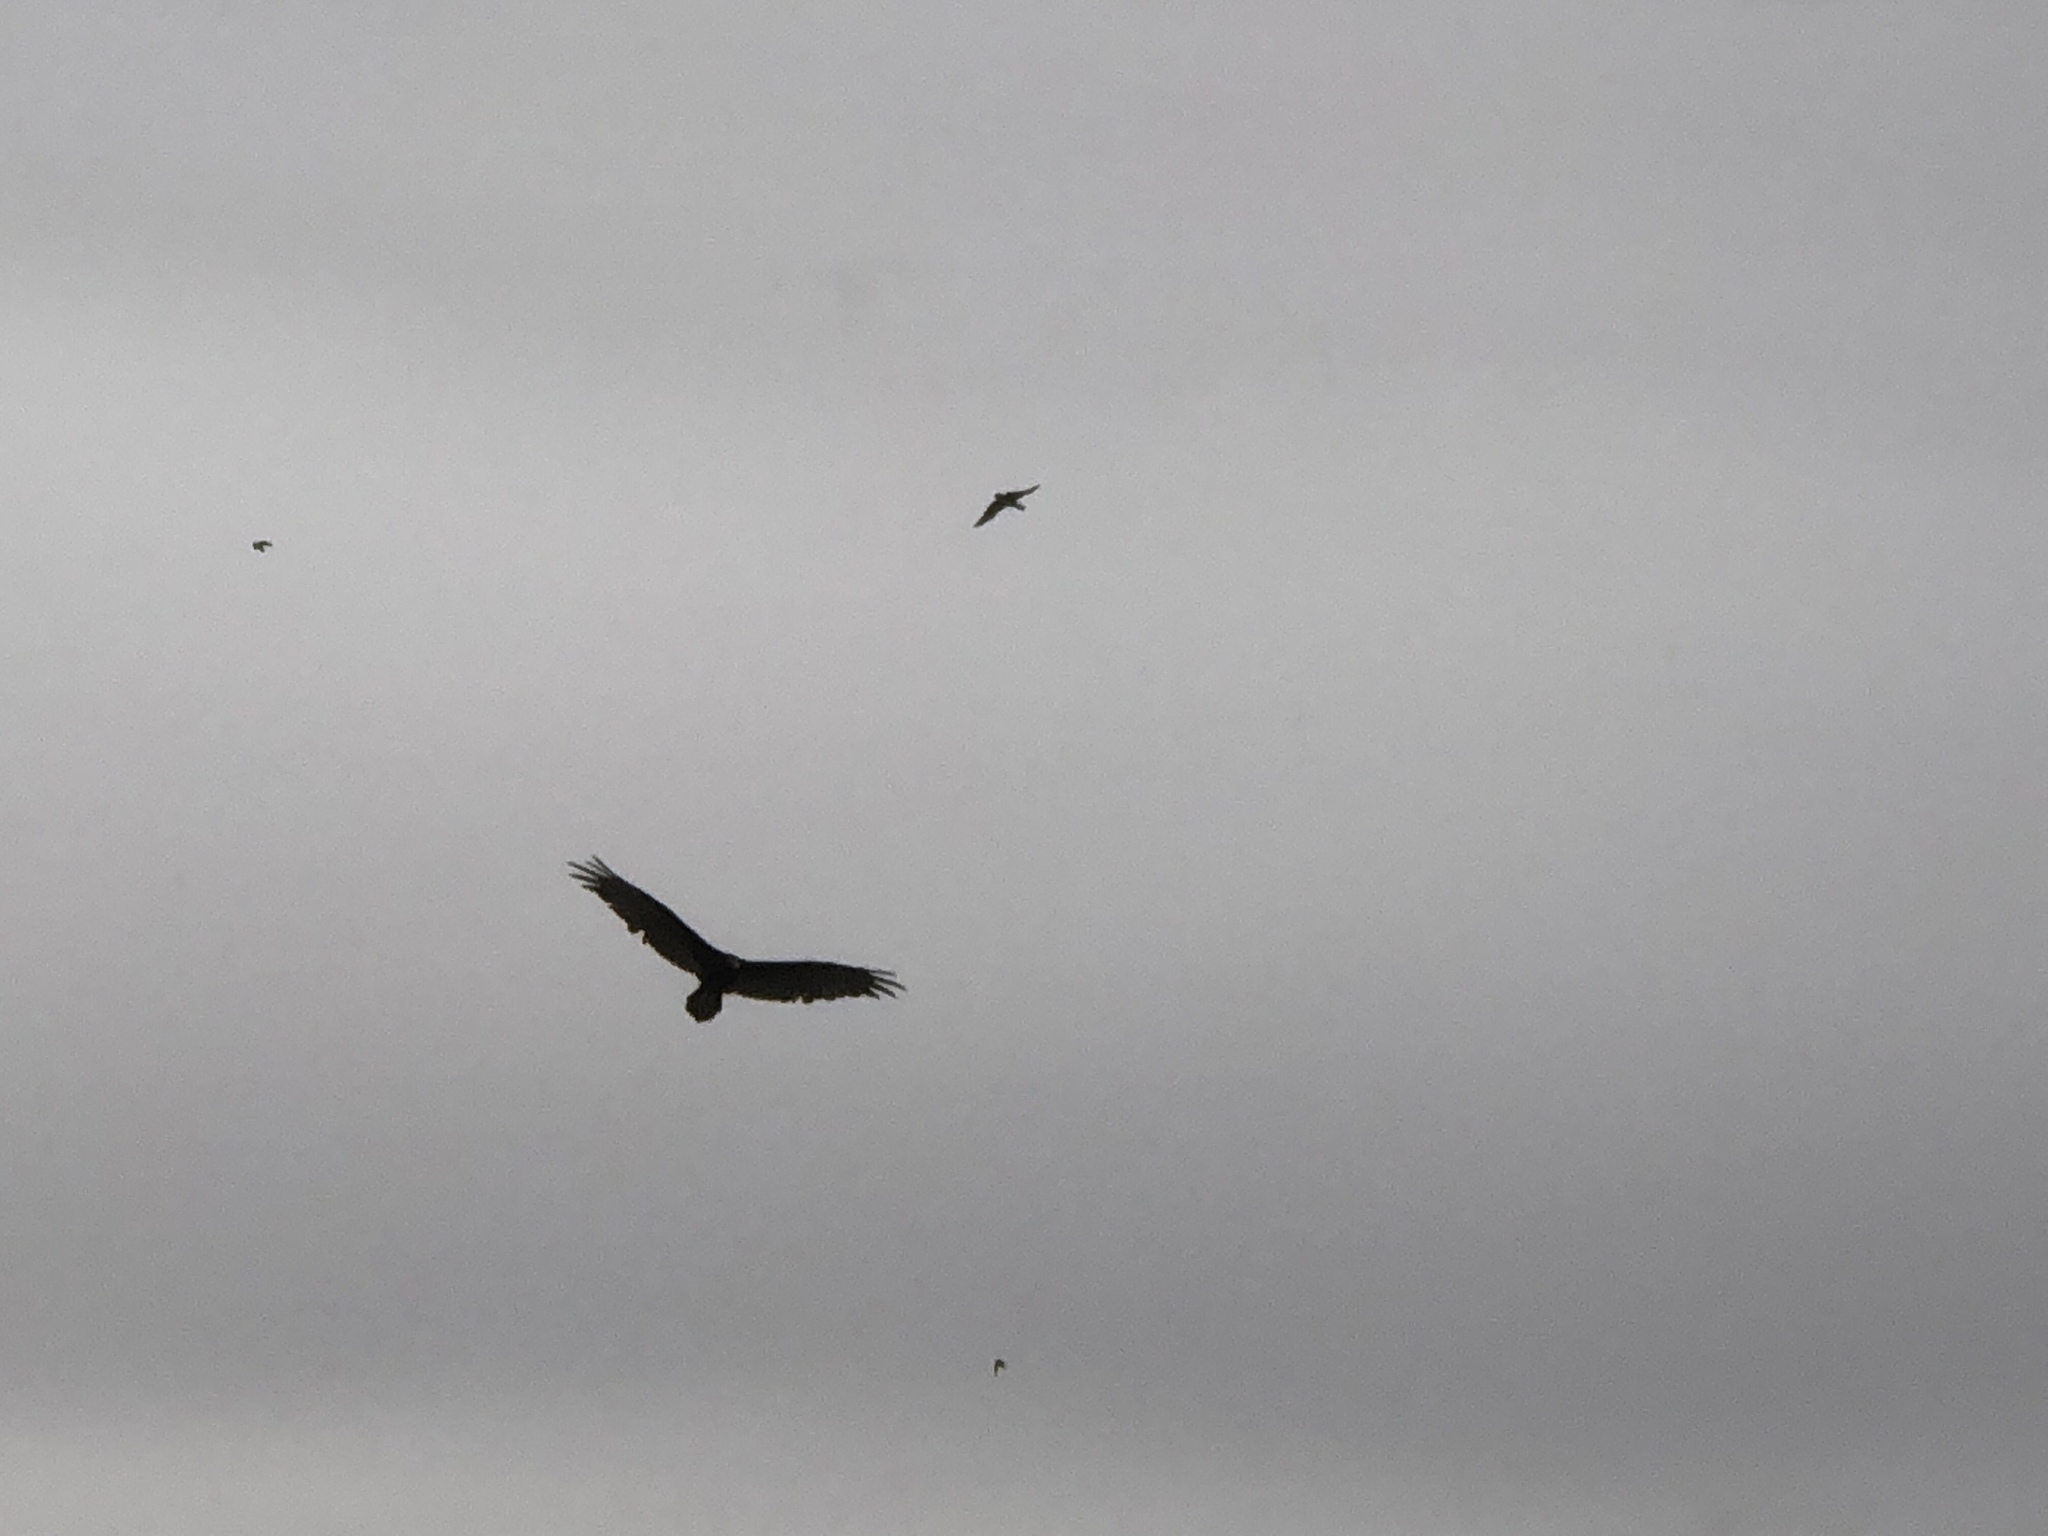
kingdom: Animalia
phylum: Chordata
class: Aves
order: Accipitriformes
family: Cathartidae
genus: Cathartes
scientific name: Cathartes aura
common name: Turkey vulture
